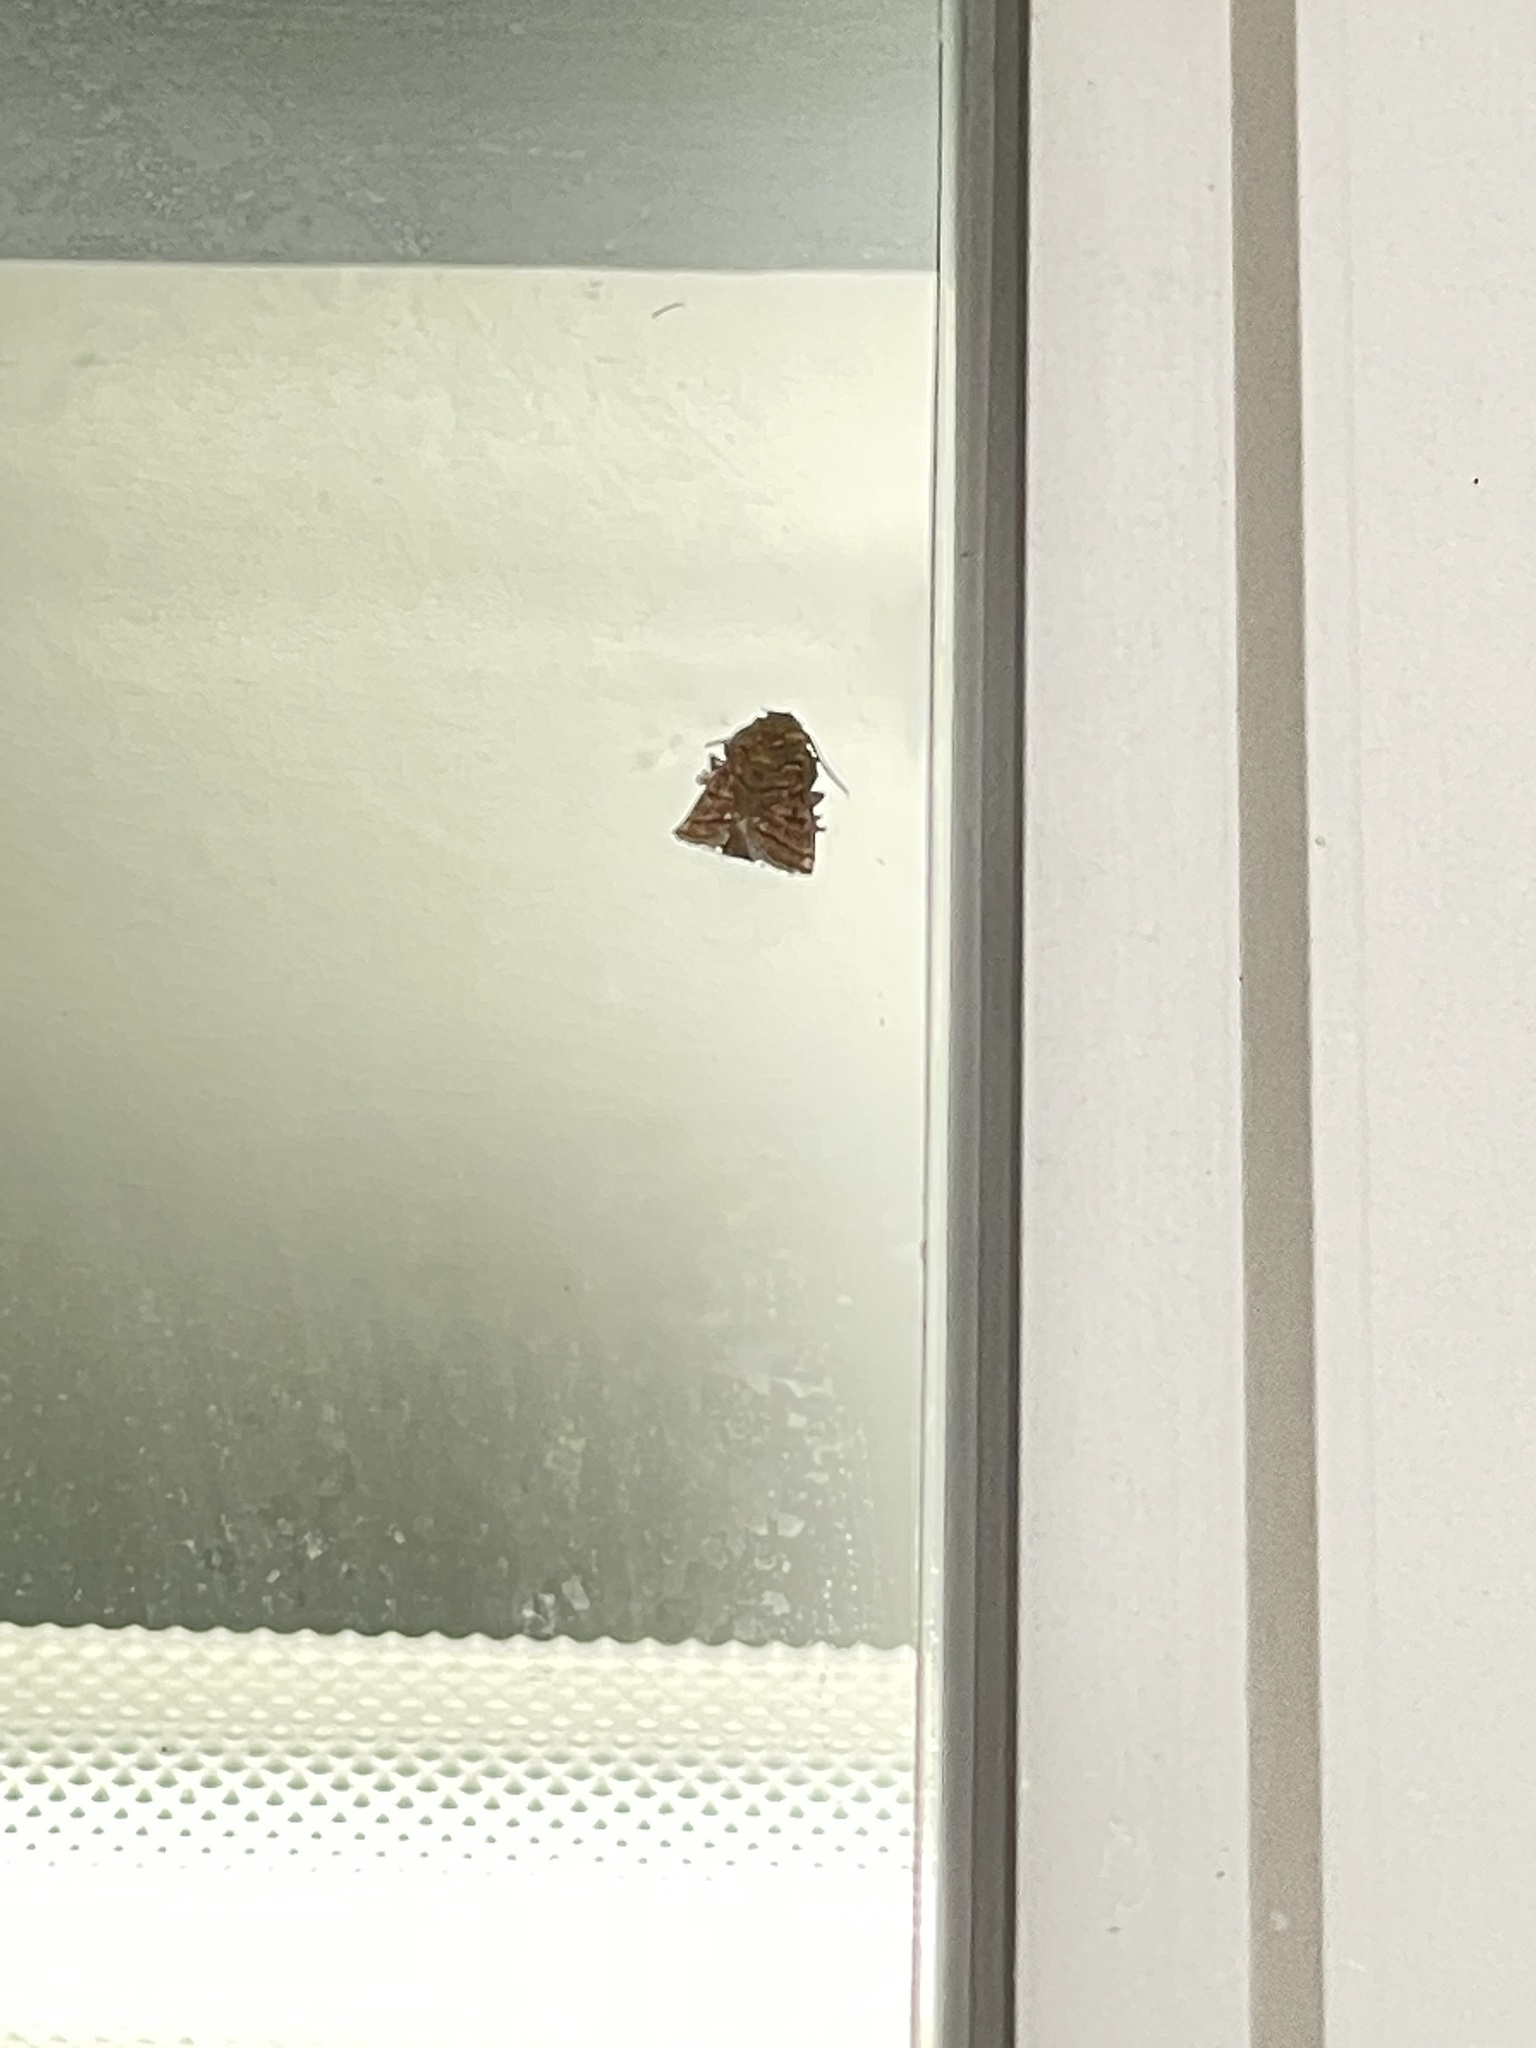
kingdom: Animalia
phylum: Arthropoda
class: Insecta
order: Lepidoptera
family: Limacodidae
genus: Orthocraspeda
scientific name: Orthocraspeda furva
